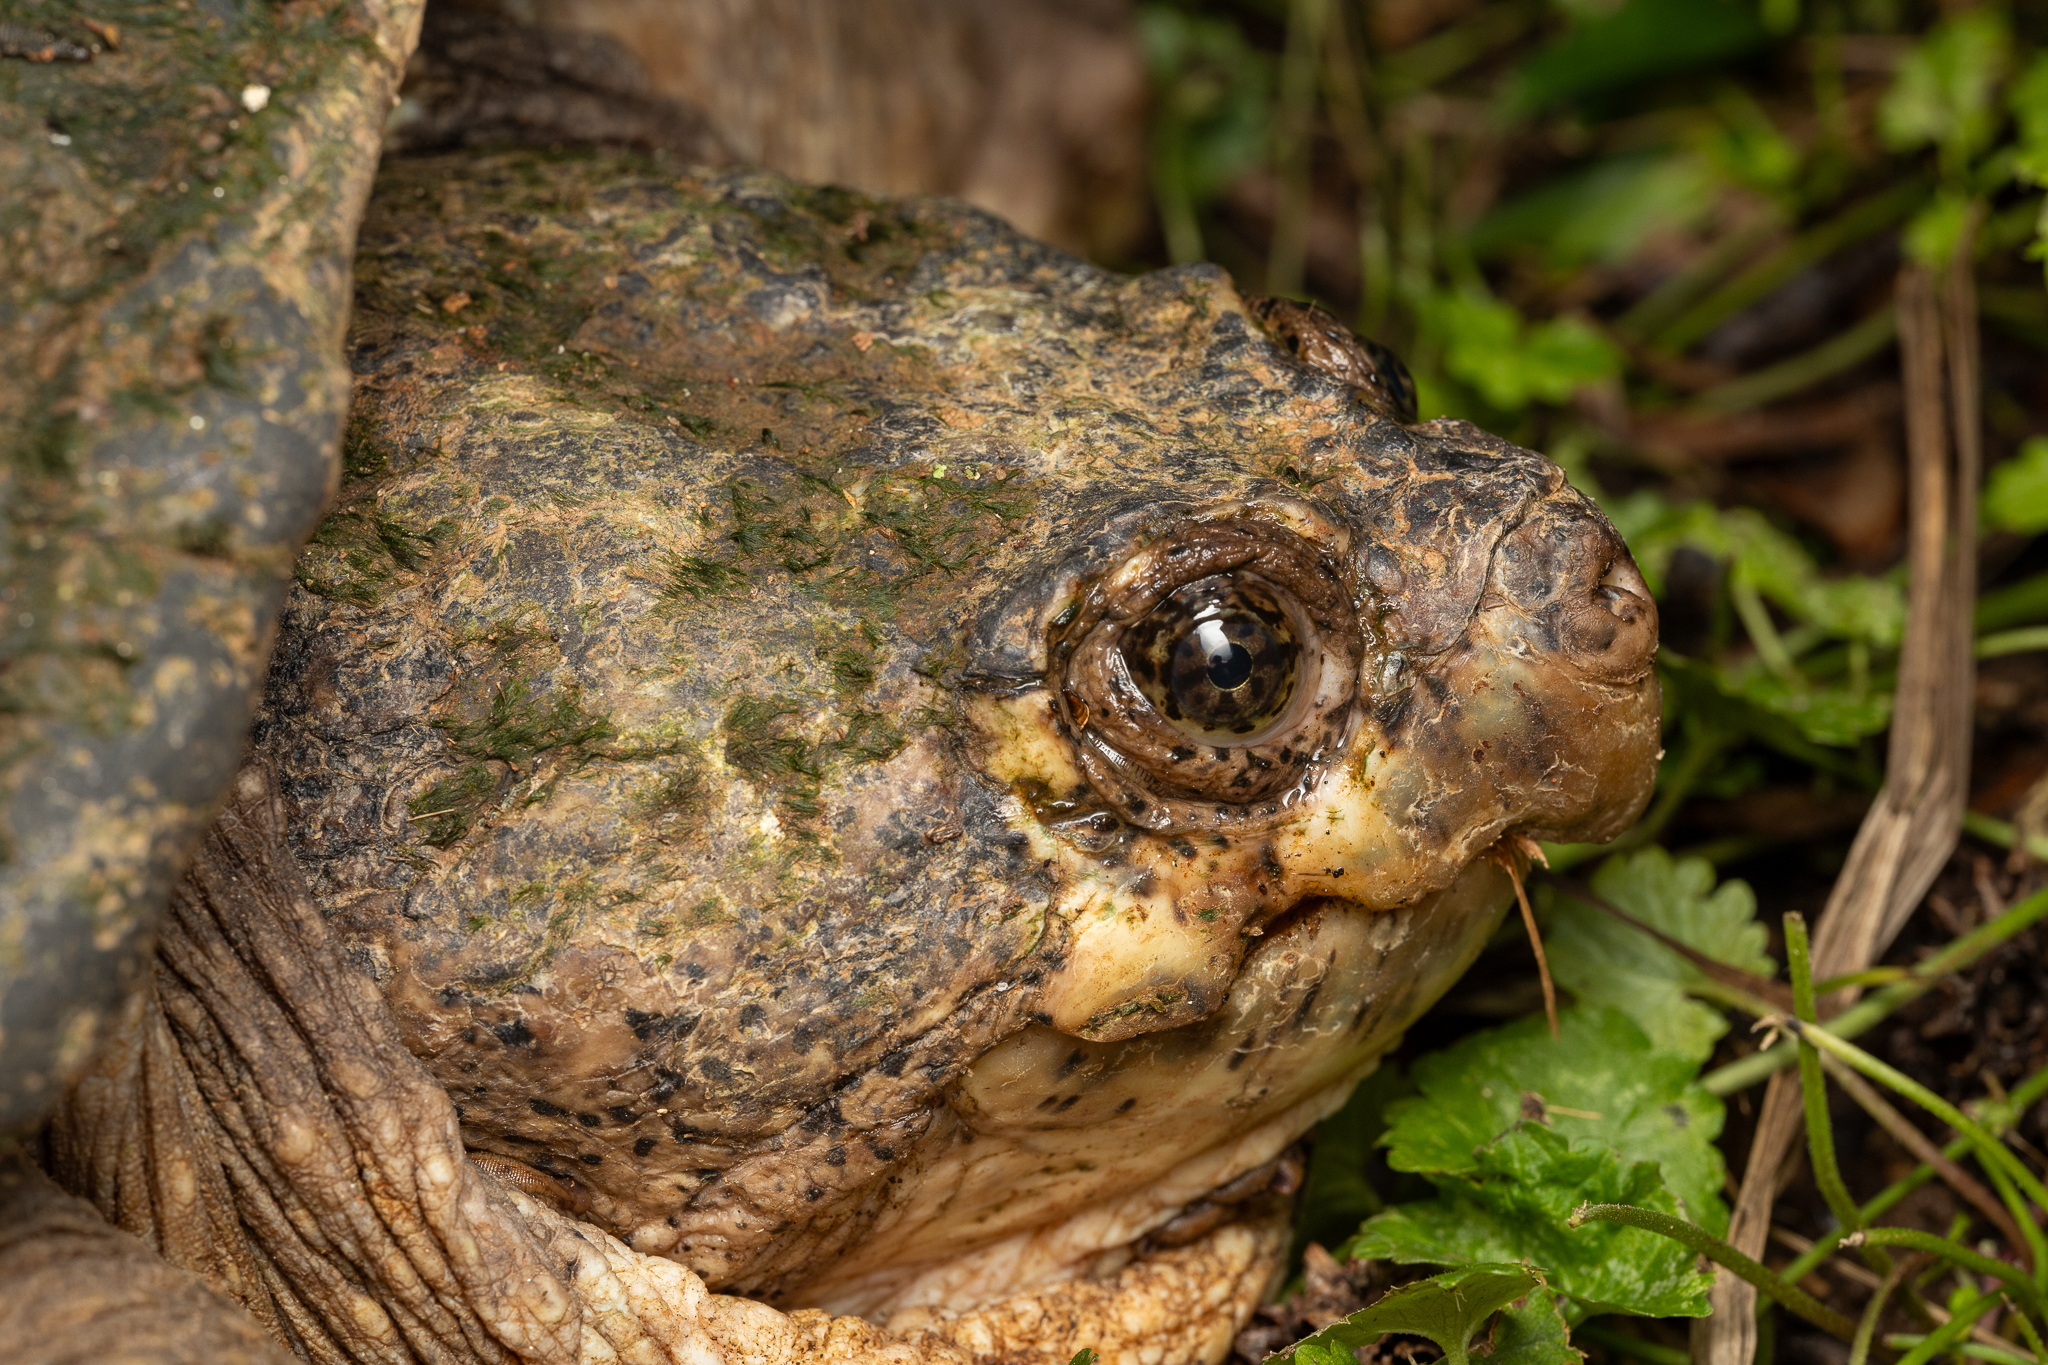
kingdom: Animalia
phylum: Chordata
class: Testudines
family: Chelydridae
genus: Chelydra
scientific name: Chelydra serpentina
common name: Common snapping turtle
